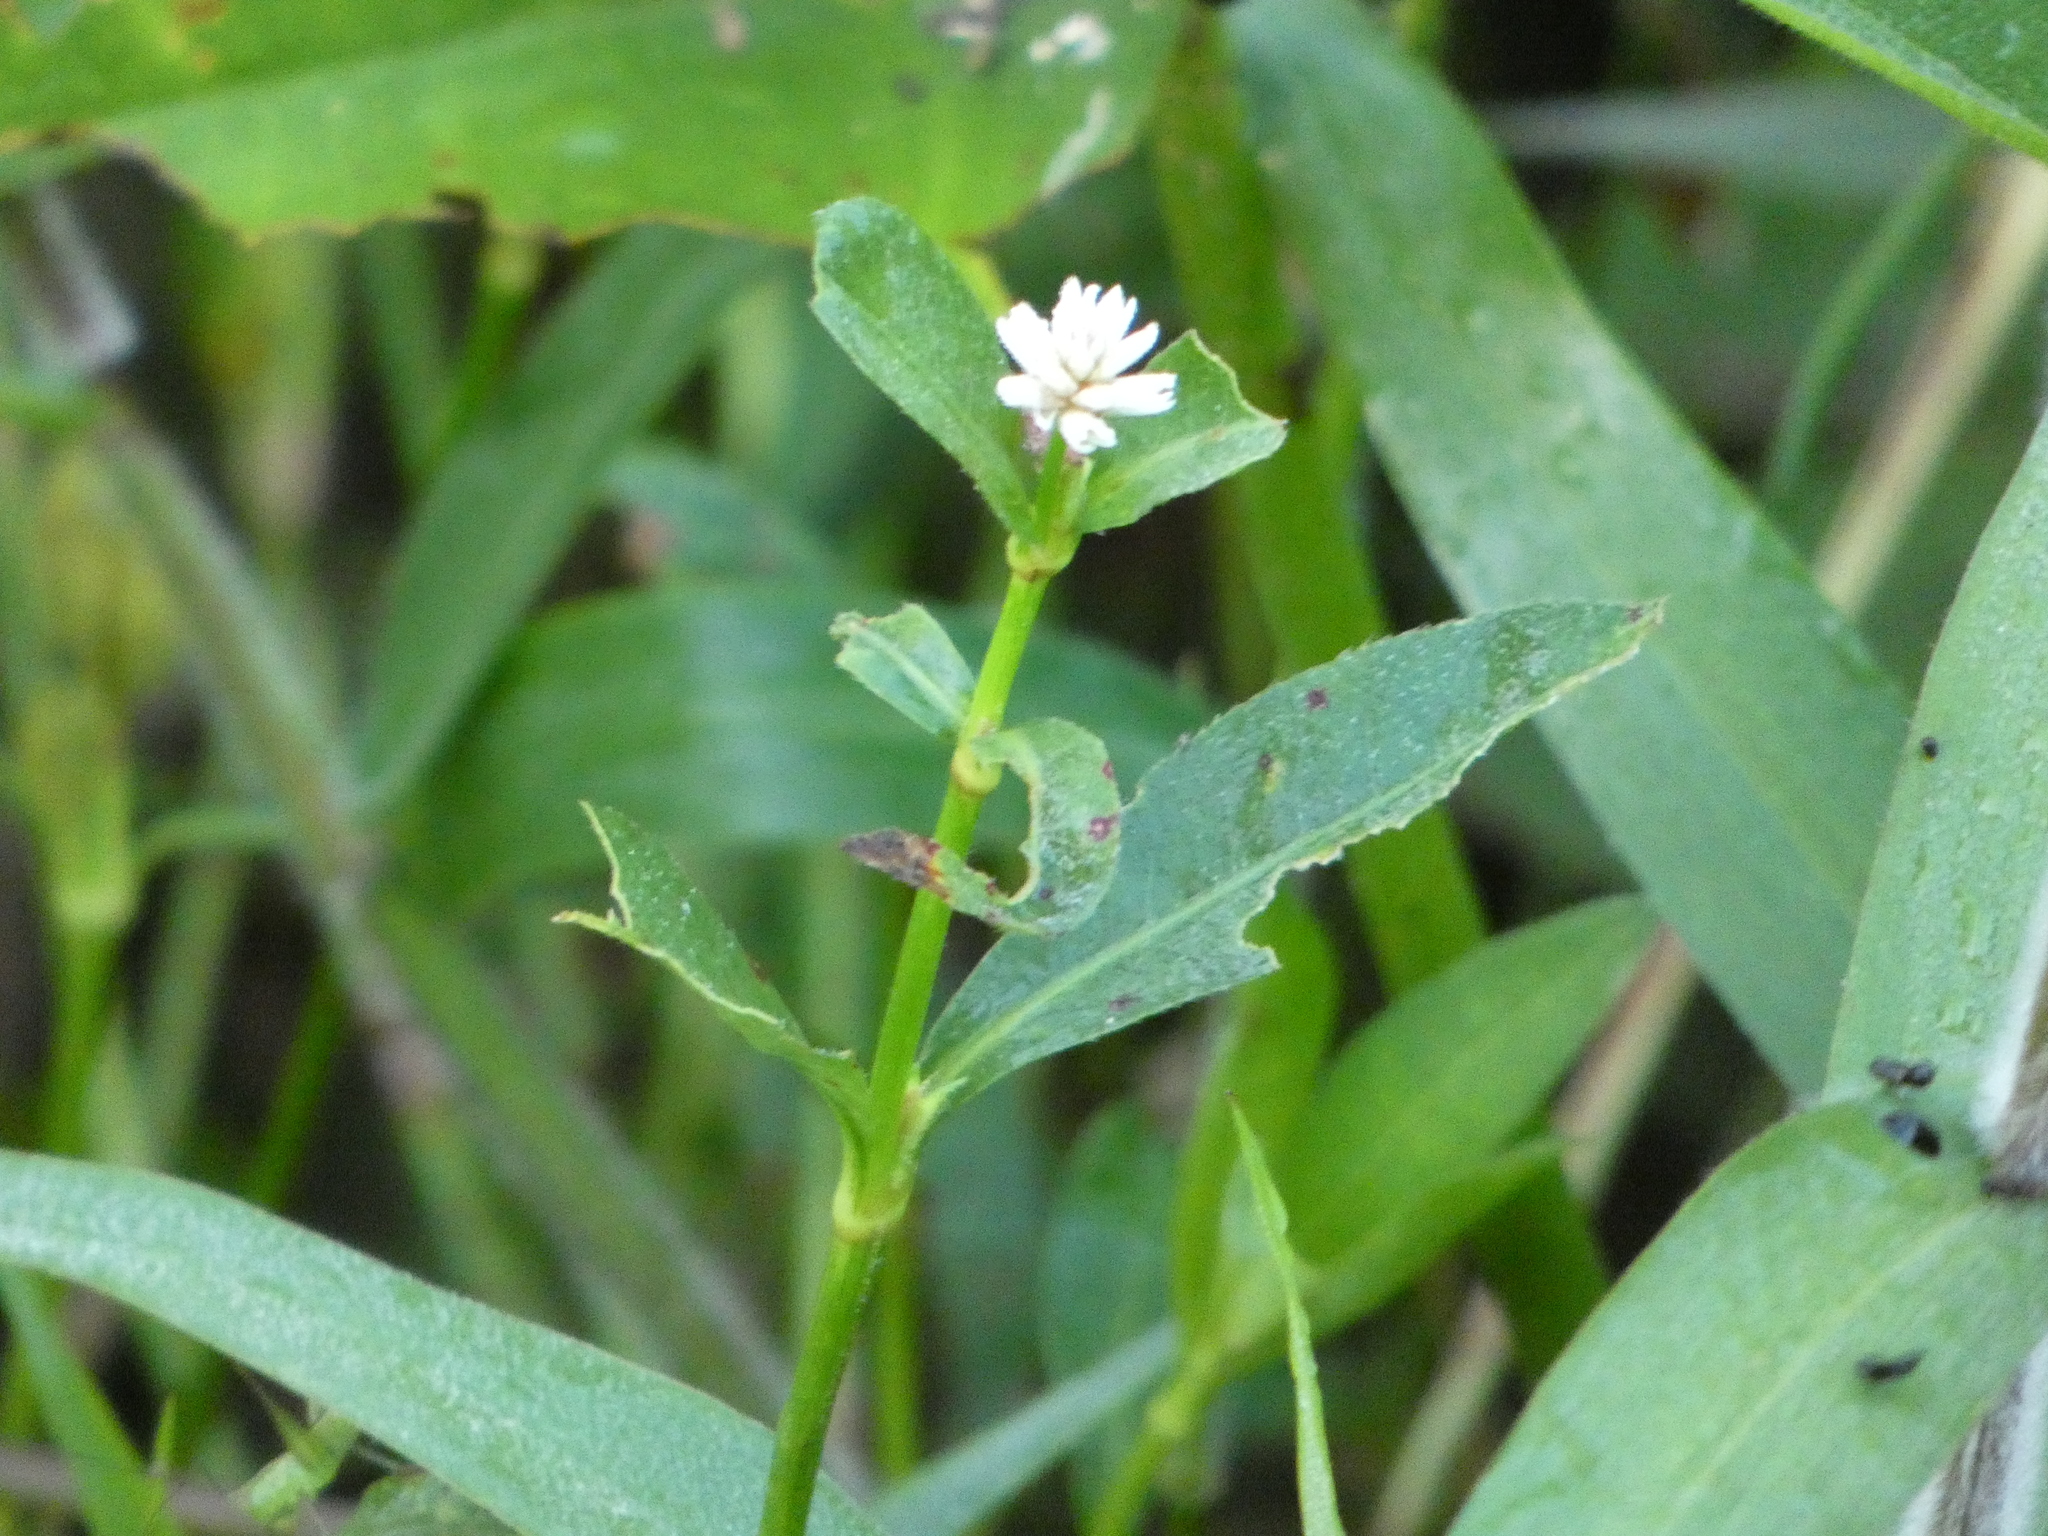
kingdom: Plantae
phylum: Tracheophyta
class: Magnoliopsida
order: Caryophyllales
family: Amaranthaceae
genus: Alternanthera
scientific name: Alternanthera philoxeroides
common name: Alligatorweed
